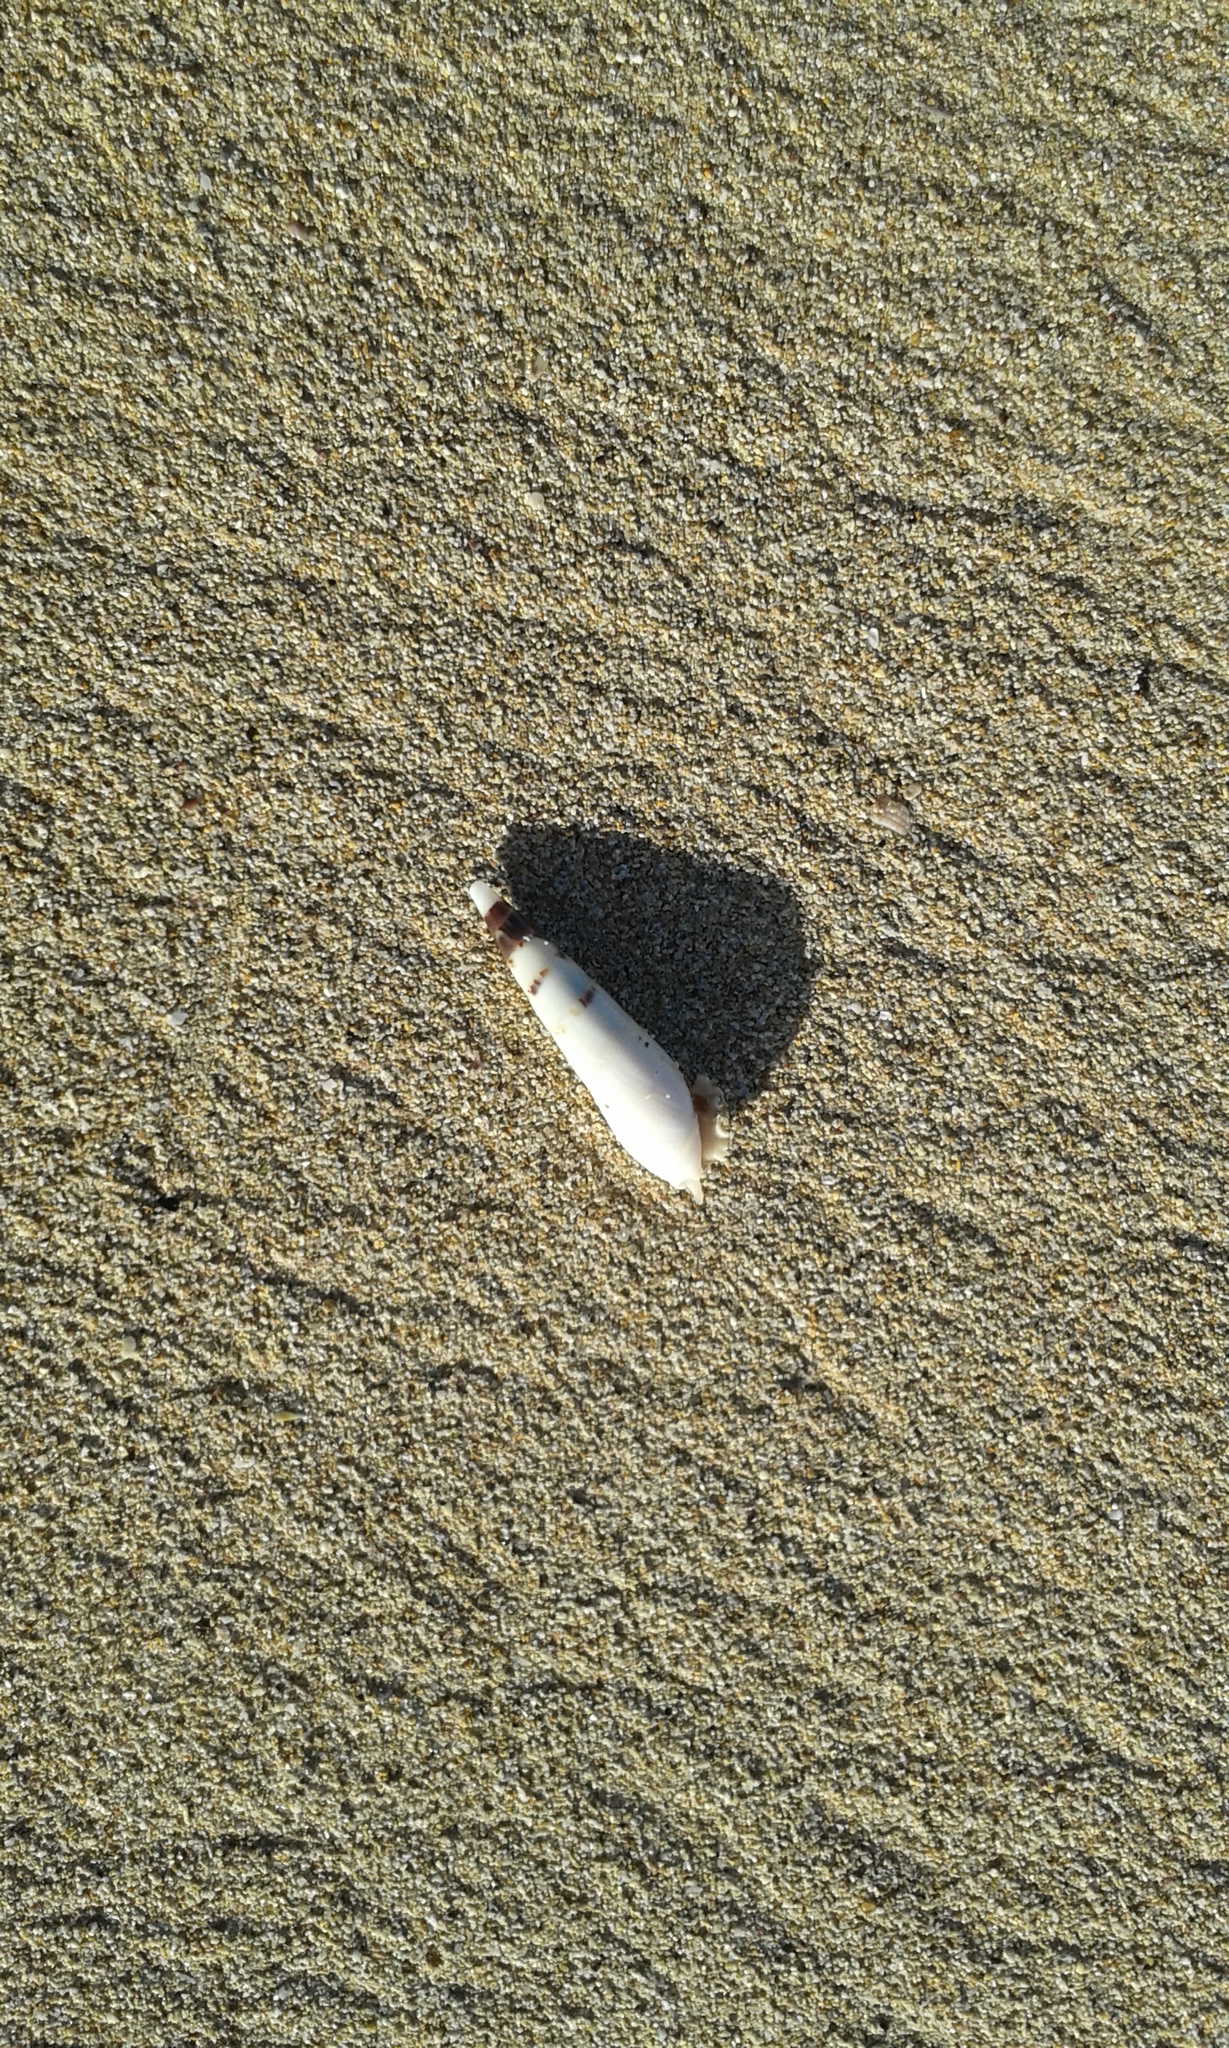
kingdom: Animalia
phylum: Mollusca
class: Gastropoda
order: Neogastropoda
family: Terebridae
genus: Hastula
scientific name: Hastula hectica
